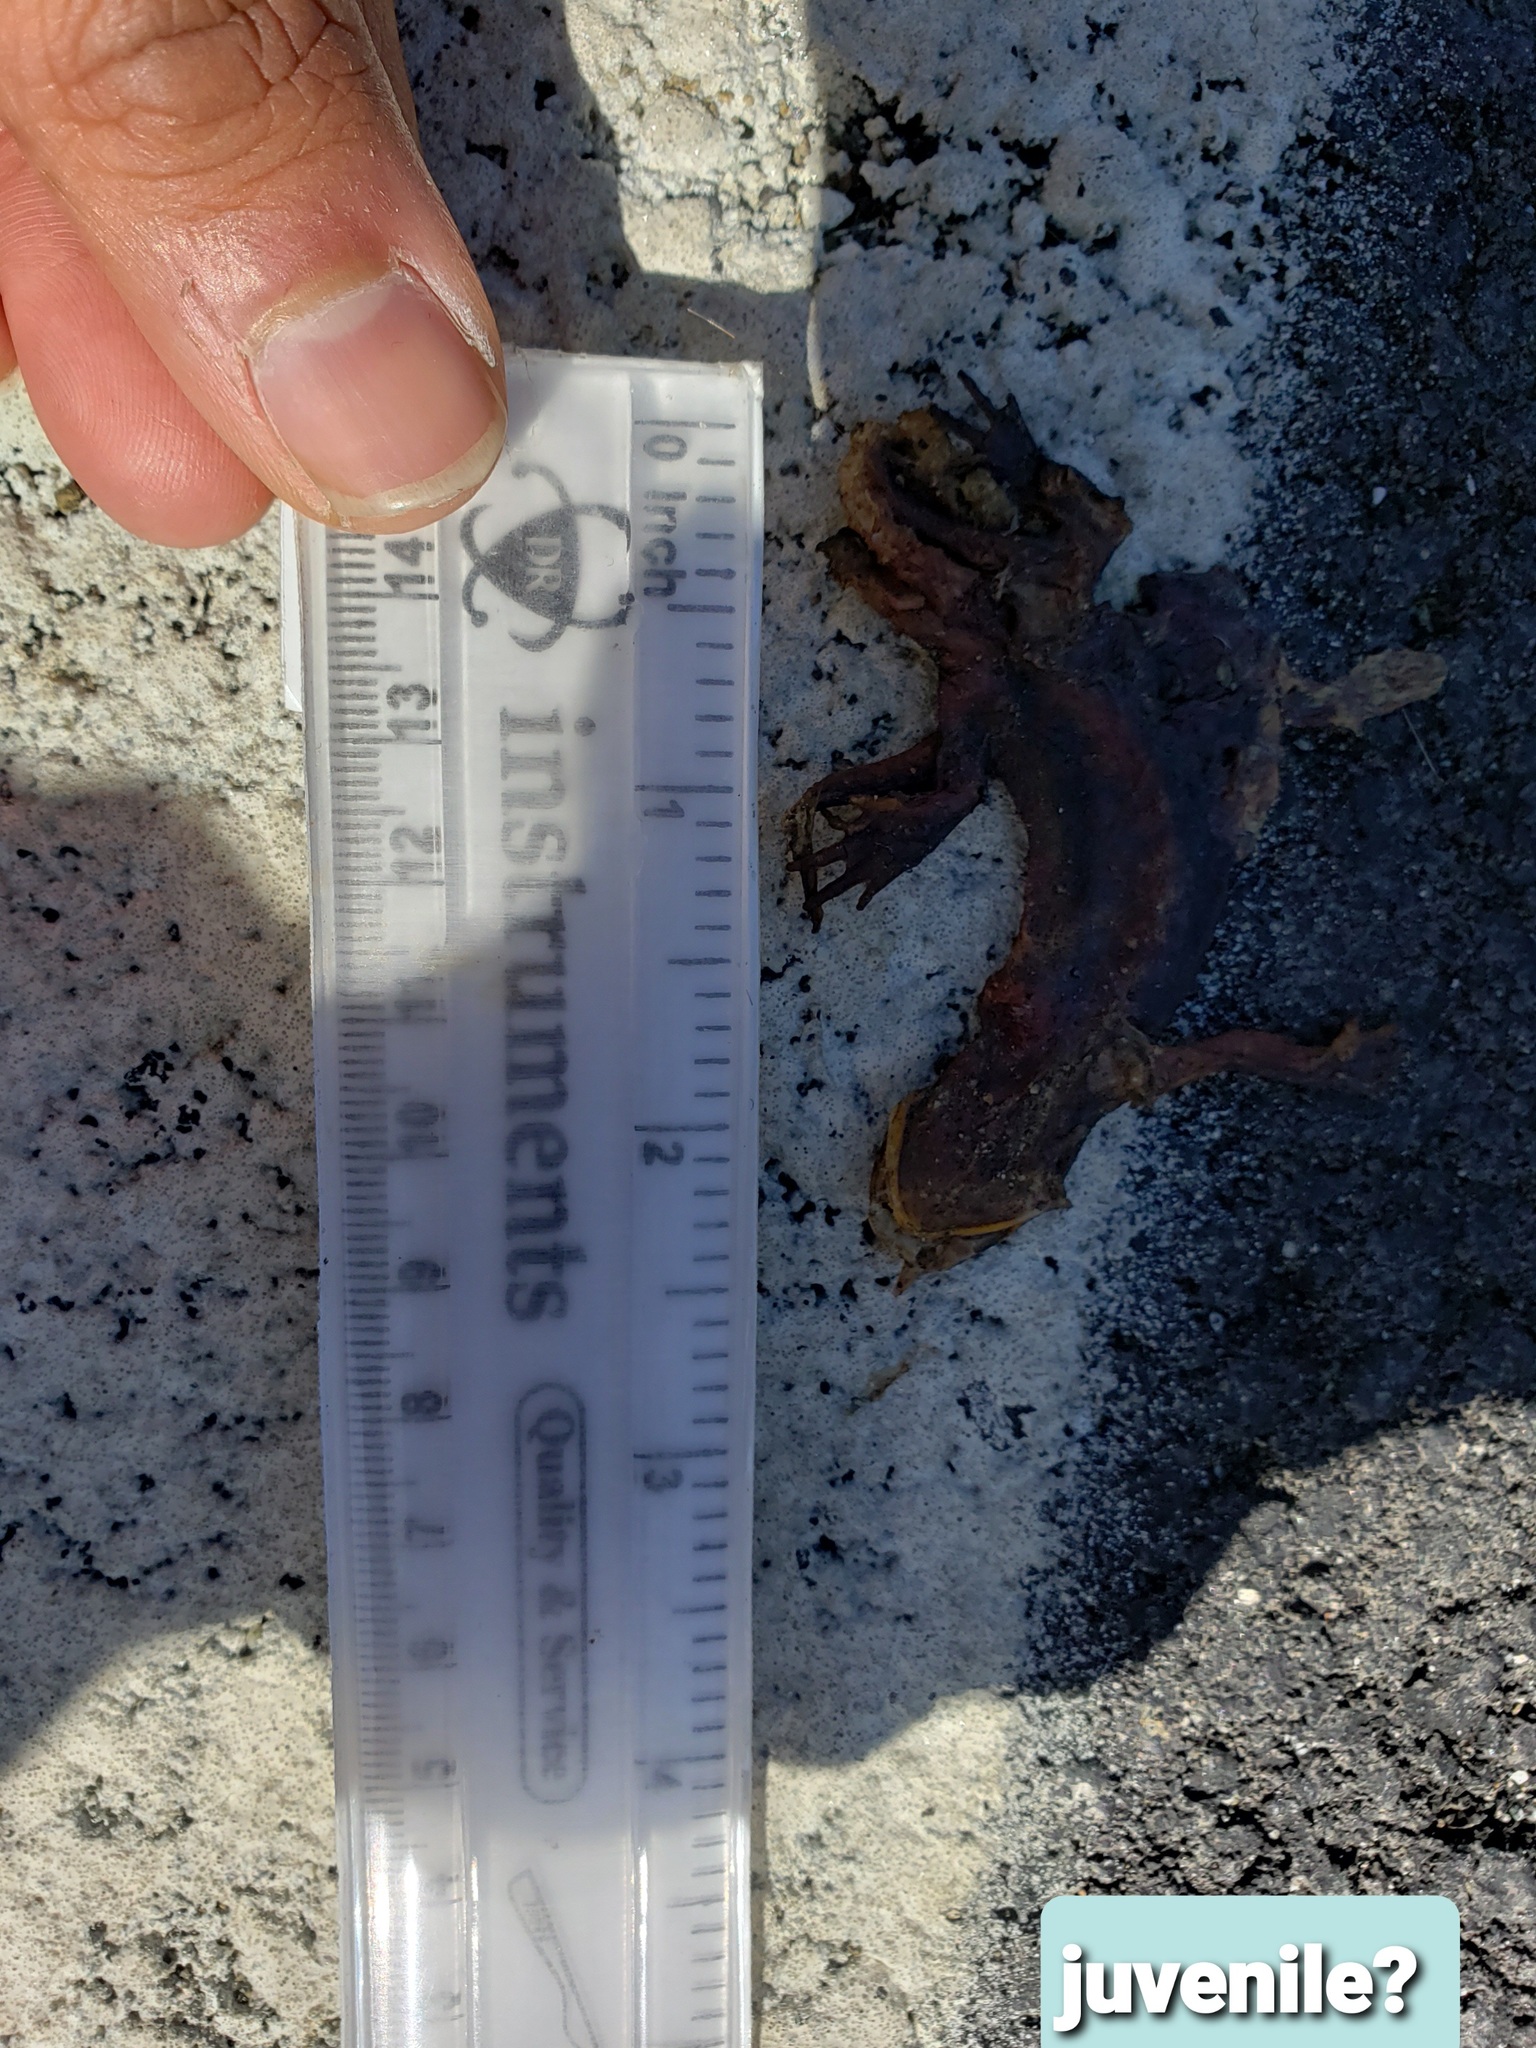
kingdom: Animalia
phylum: Chordata
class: Amphibia
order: Caudata
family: Salamandridae
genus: Taricha
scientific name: Taricha
